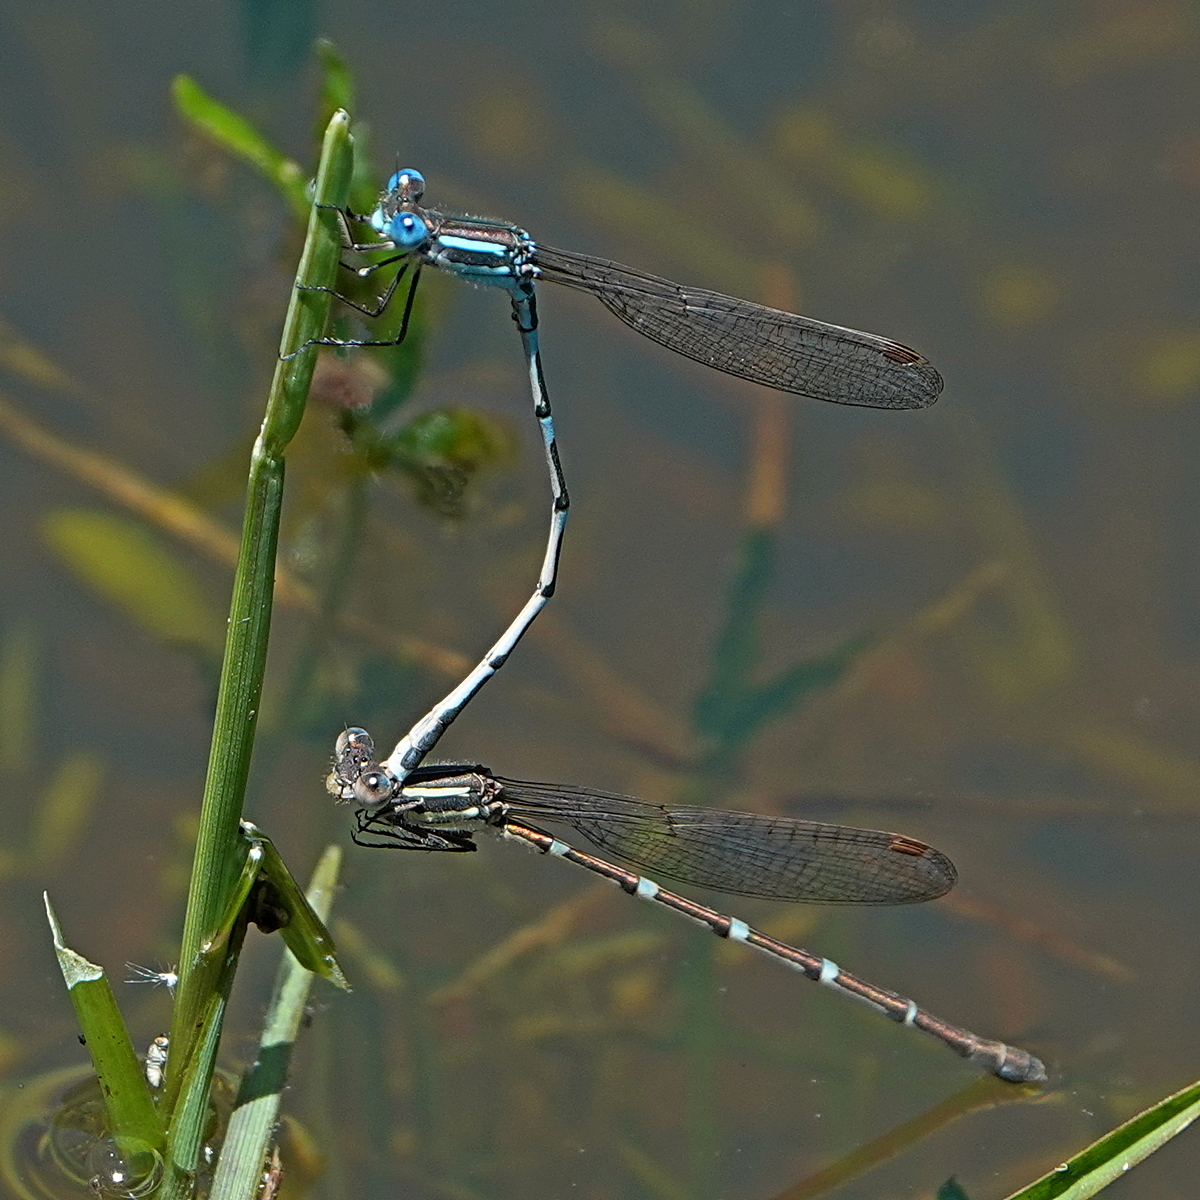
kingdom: Animalia
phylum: Arthropoda
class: Insecta
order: Odonata
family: Lestidae
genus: Austrolestes
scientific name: Austrolestes leda
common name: Wandering ringtail
